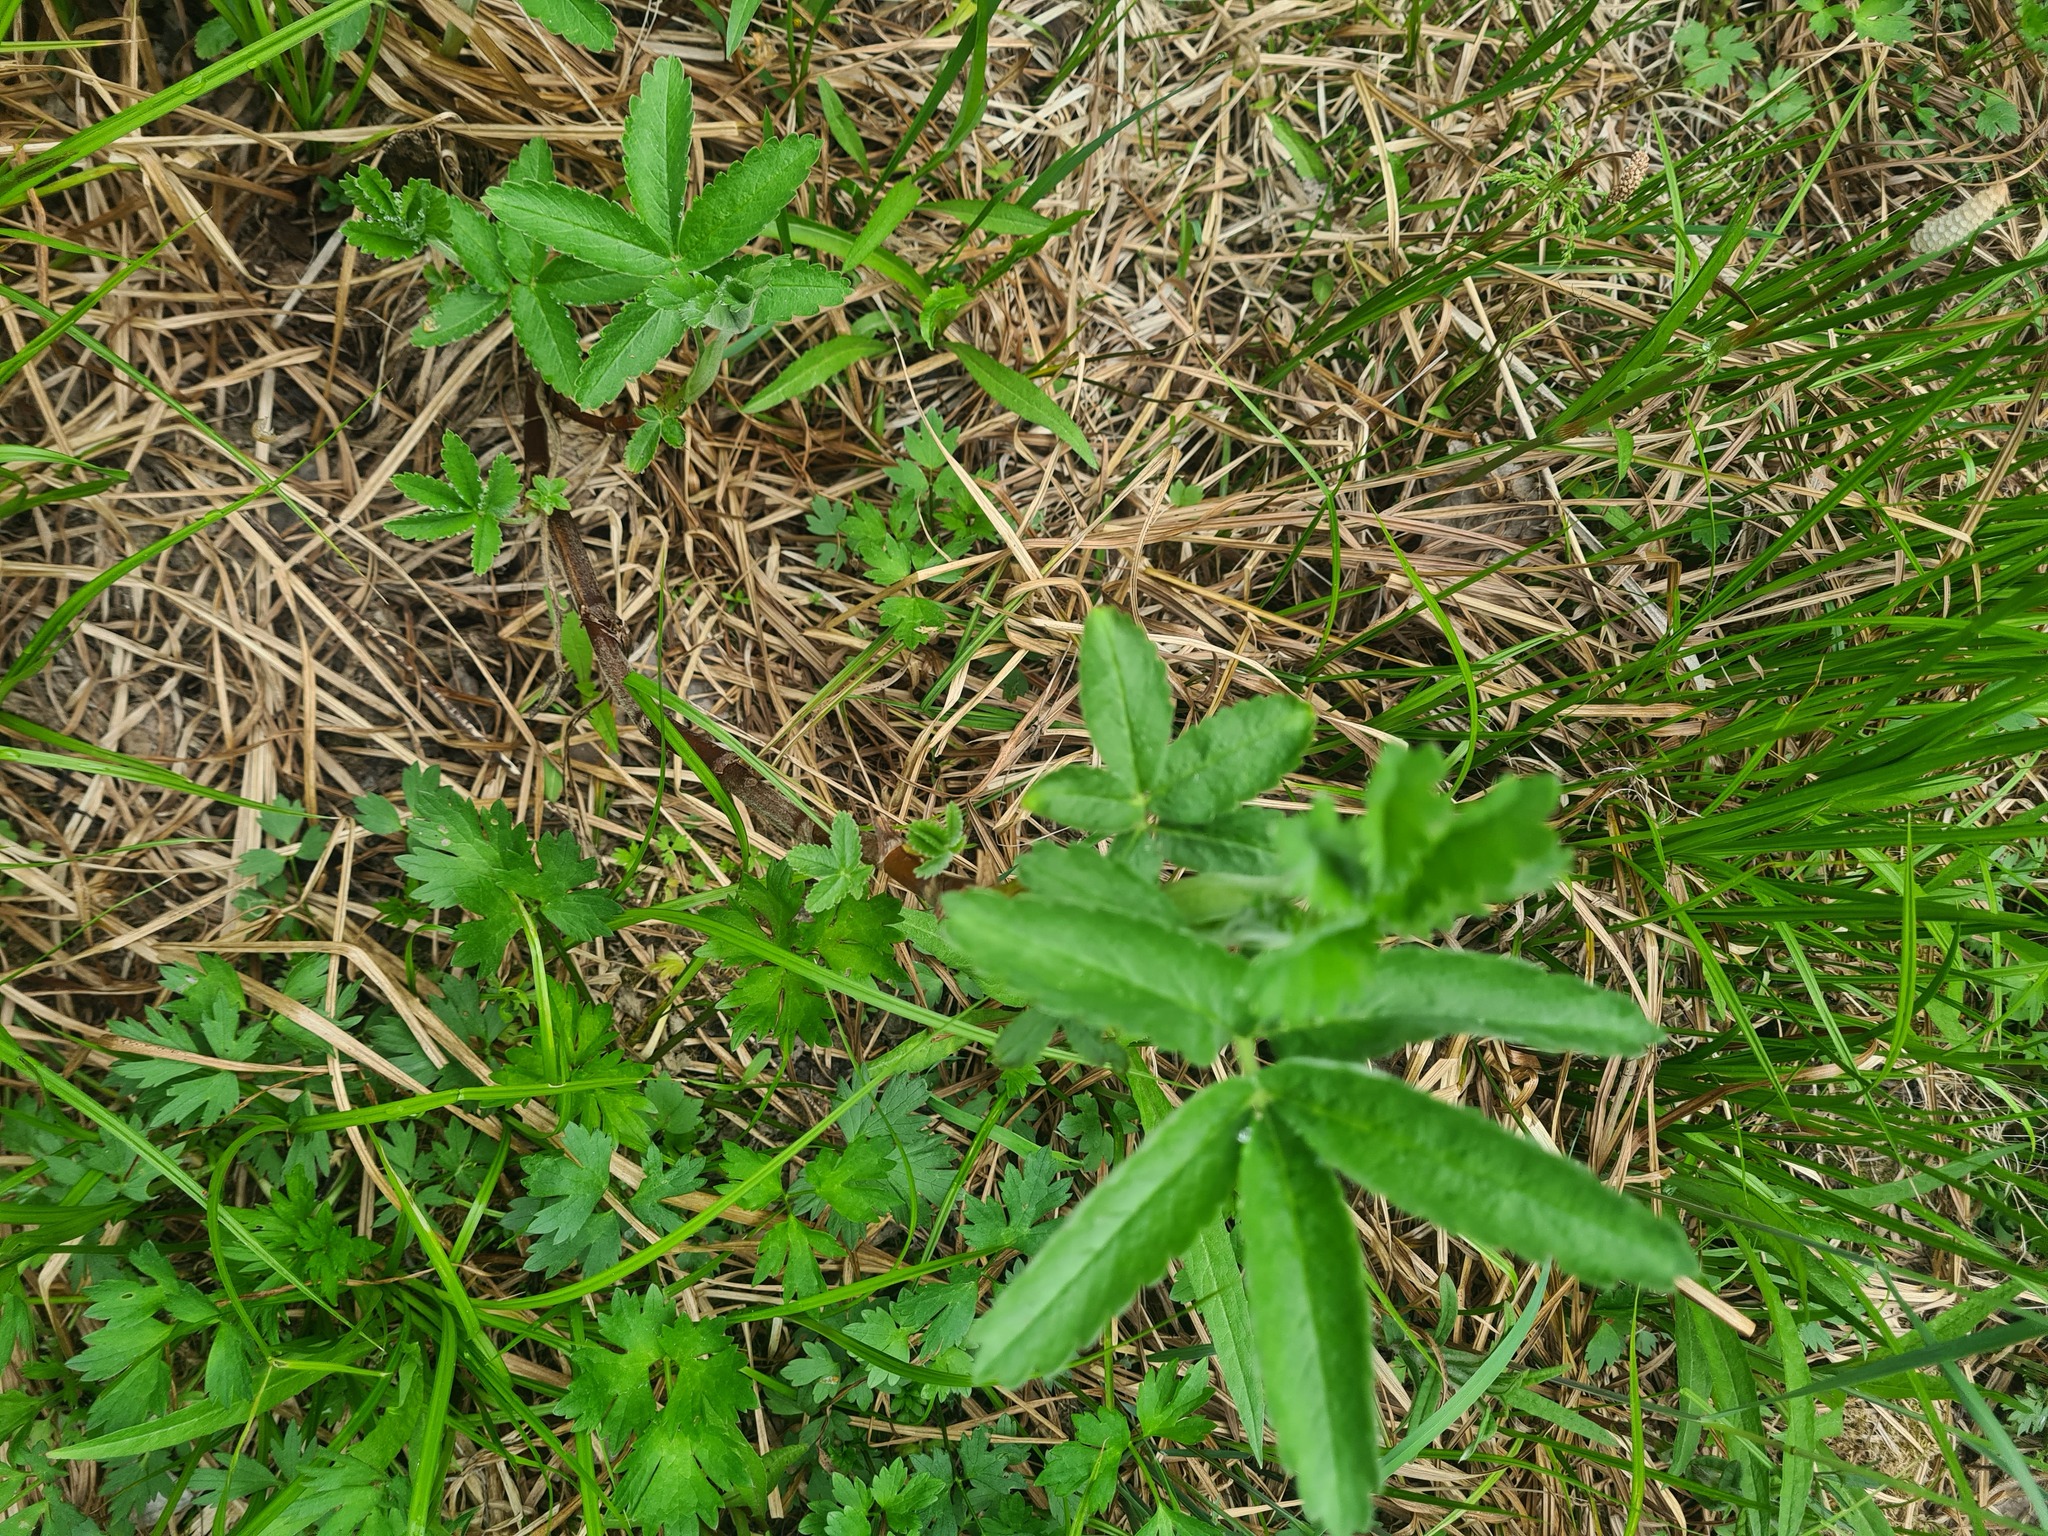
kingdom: Plantae
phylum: Tracheophyta
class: Magnoliopsida
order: Rosales
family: Rosaceae
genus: Comarum
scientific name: Comarum palustre
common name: Marsh cinquefoil
